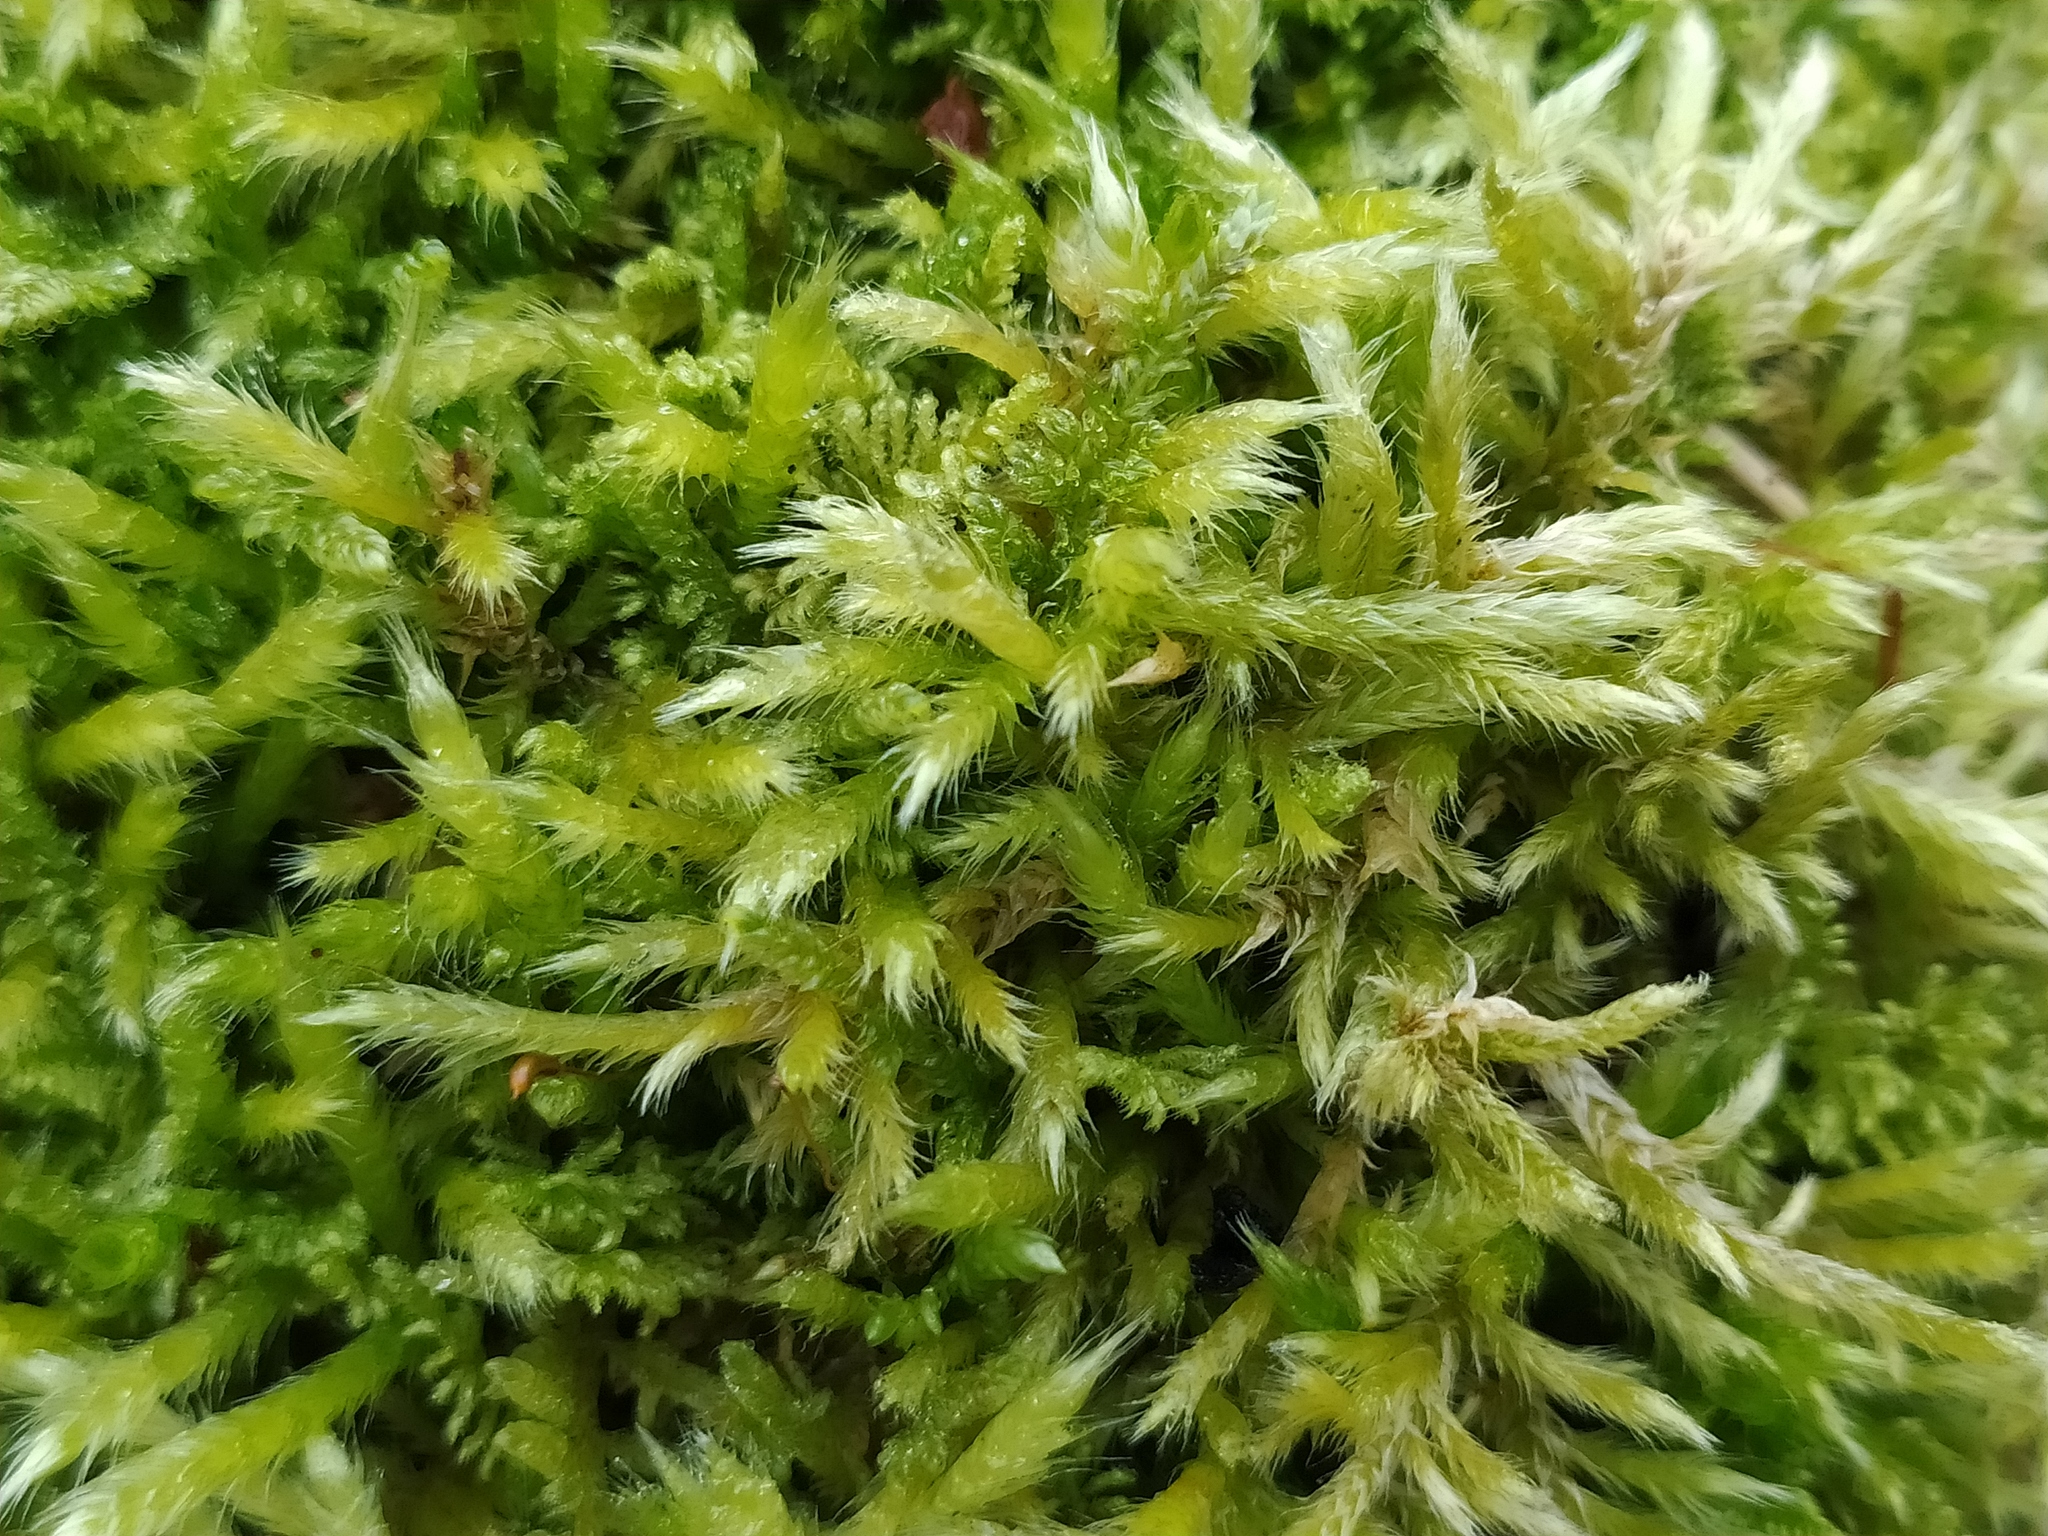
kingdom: Plantae
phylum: Bryophyta
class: Bryopsida
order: Hypnales
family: Brachytheciaceae
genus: Homalothecium
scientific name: Homalothecium lutescens
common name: Yellow feather-moss
